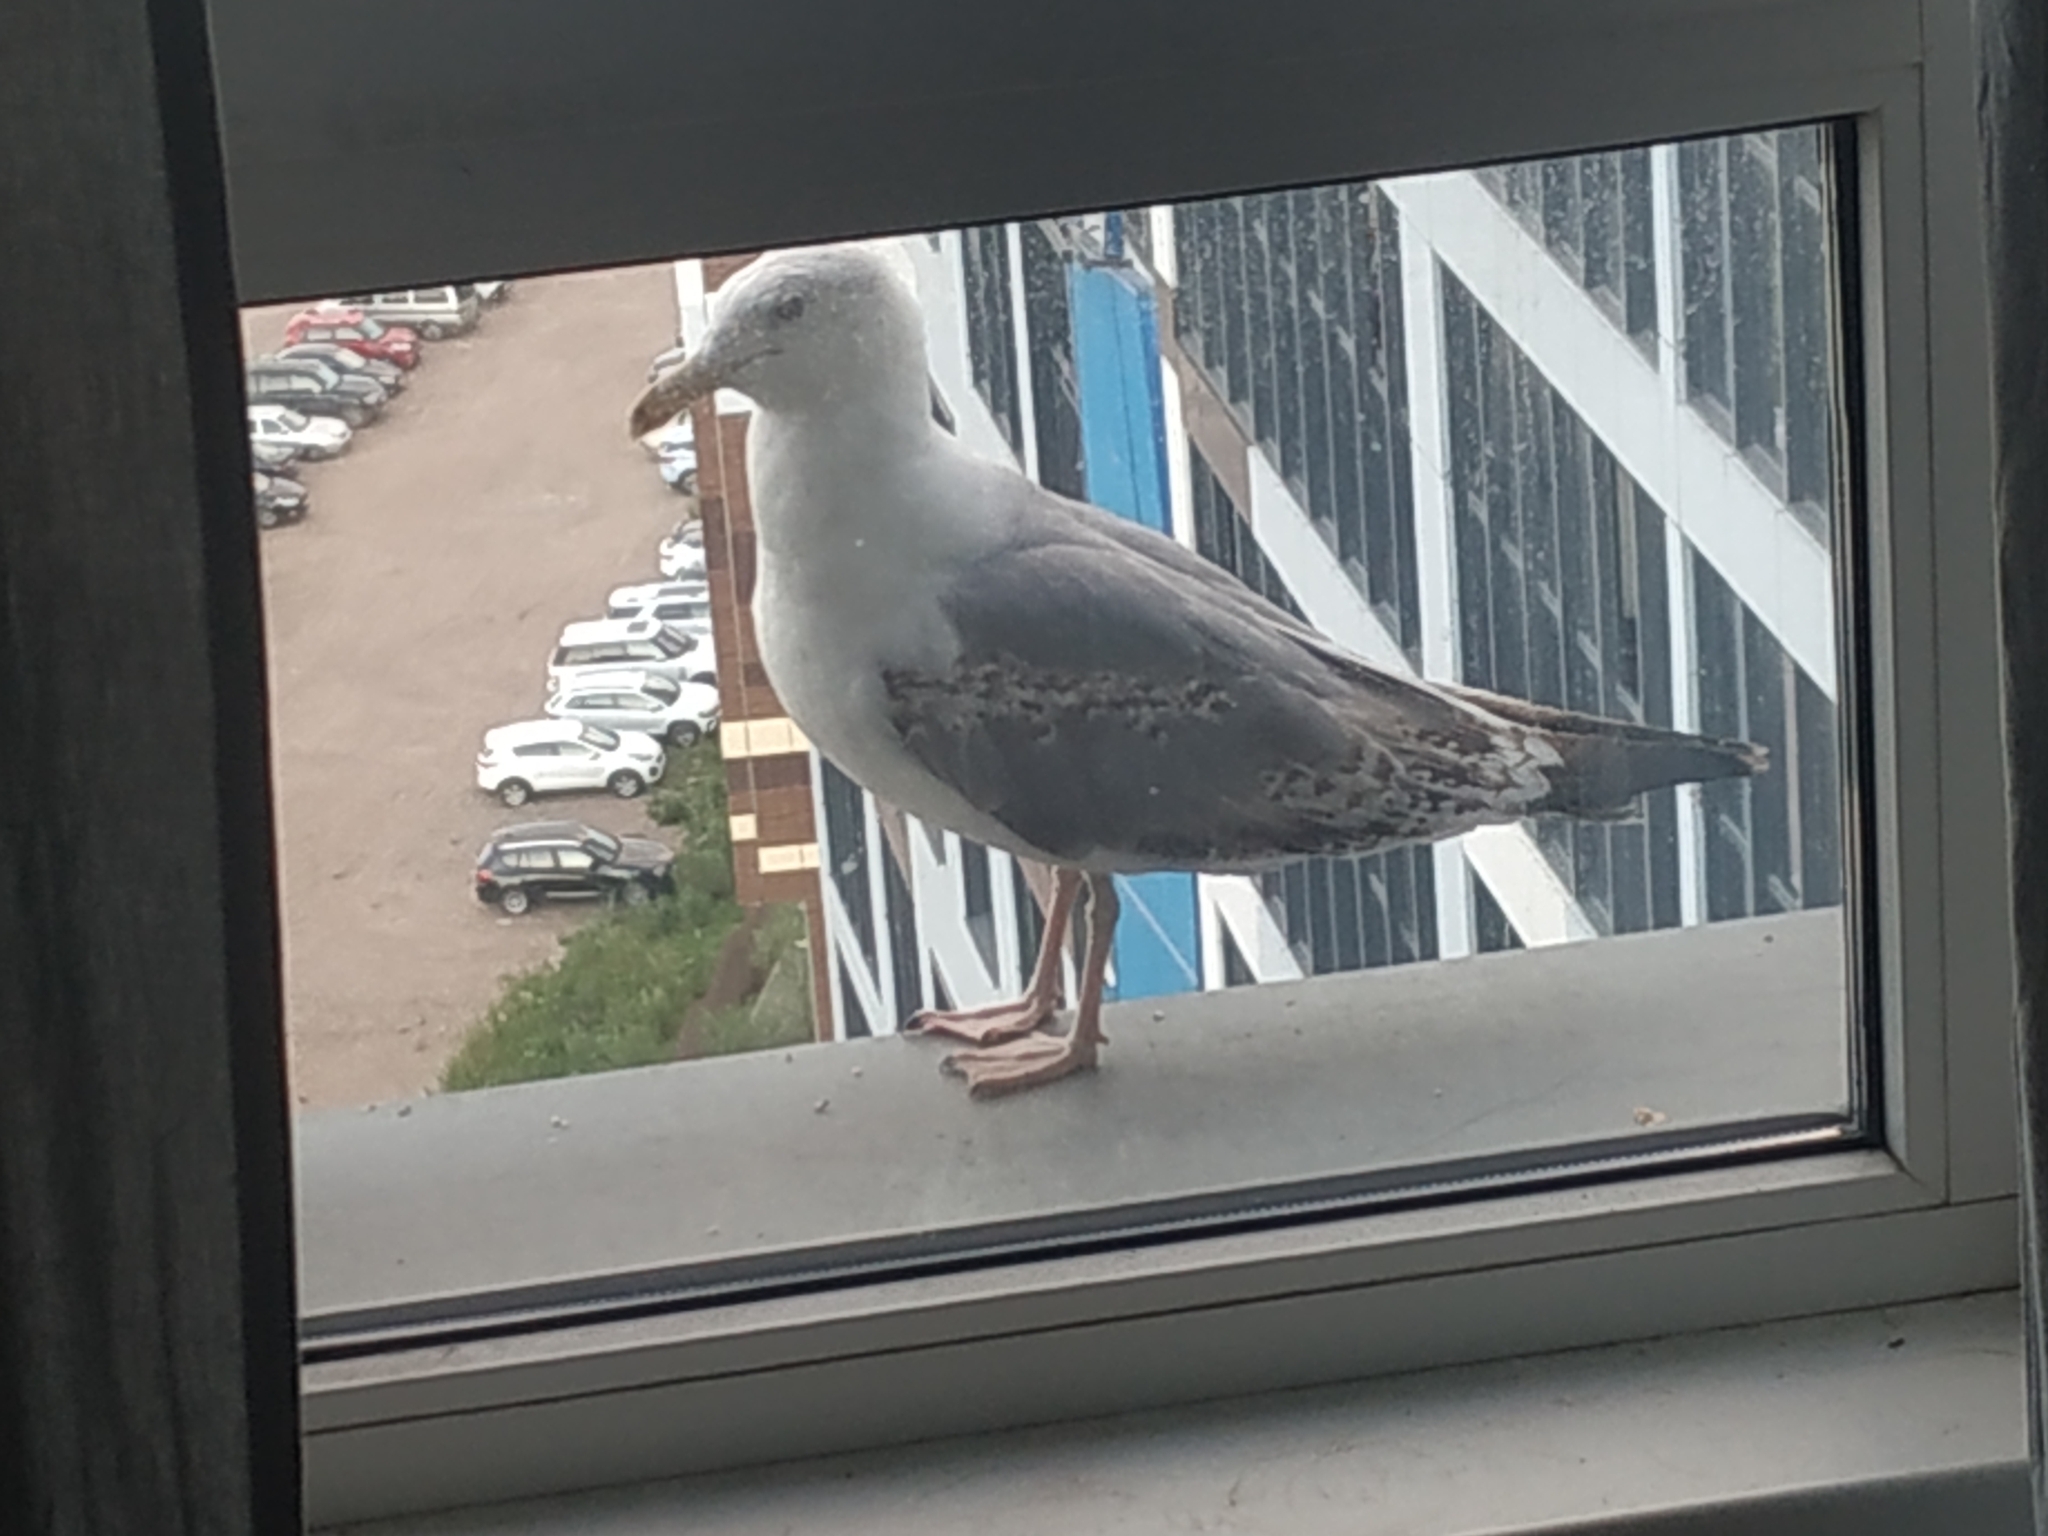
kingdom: Animalia
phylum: Chordata
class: Aves
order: Charadriiformes
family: Laridae
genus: Larus
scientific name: Larus argentatus
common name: Herring gull
